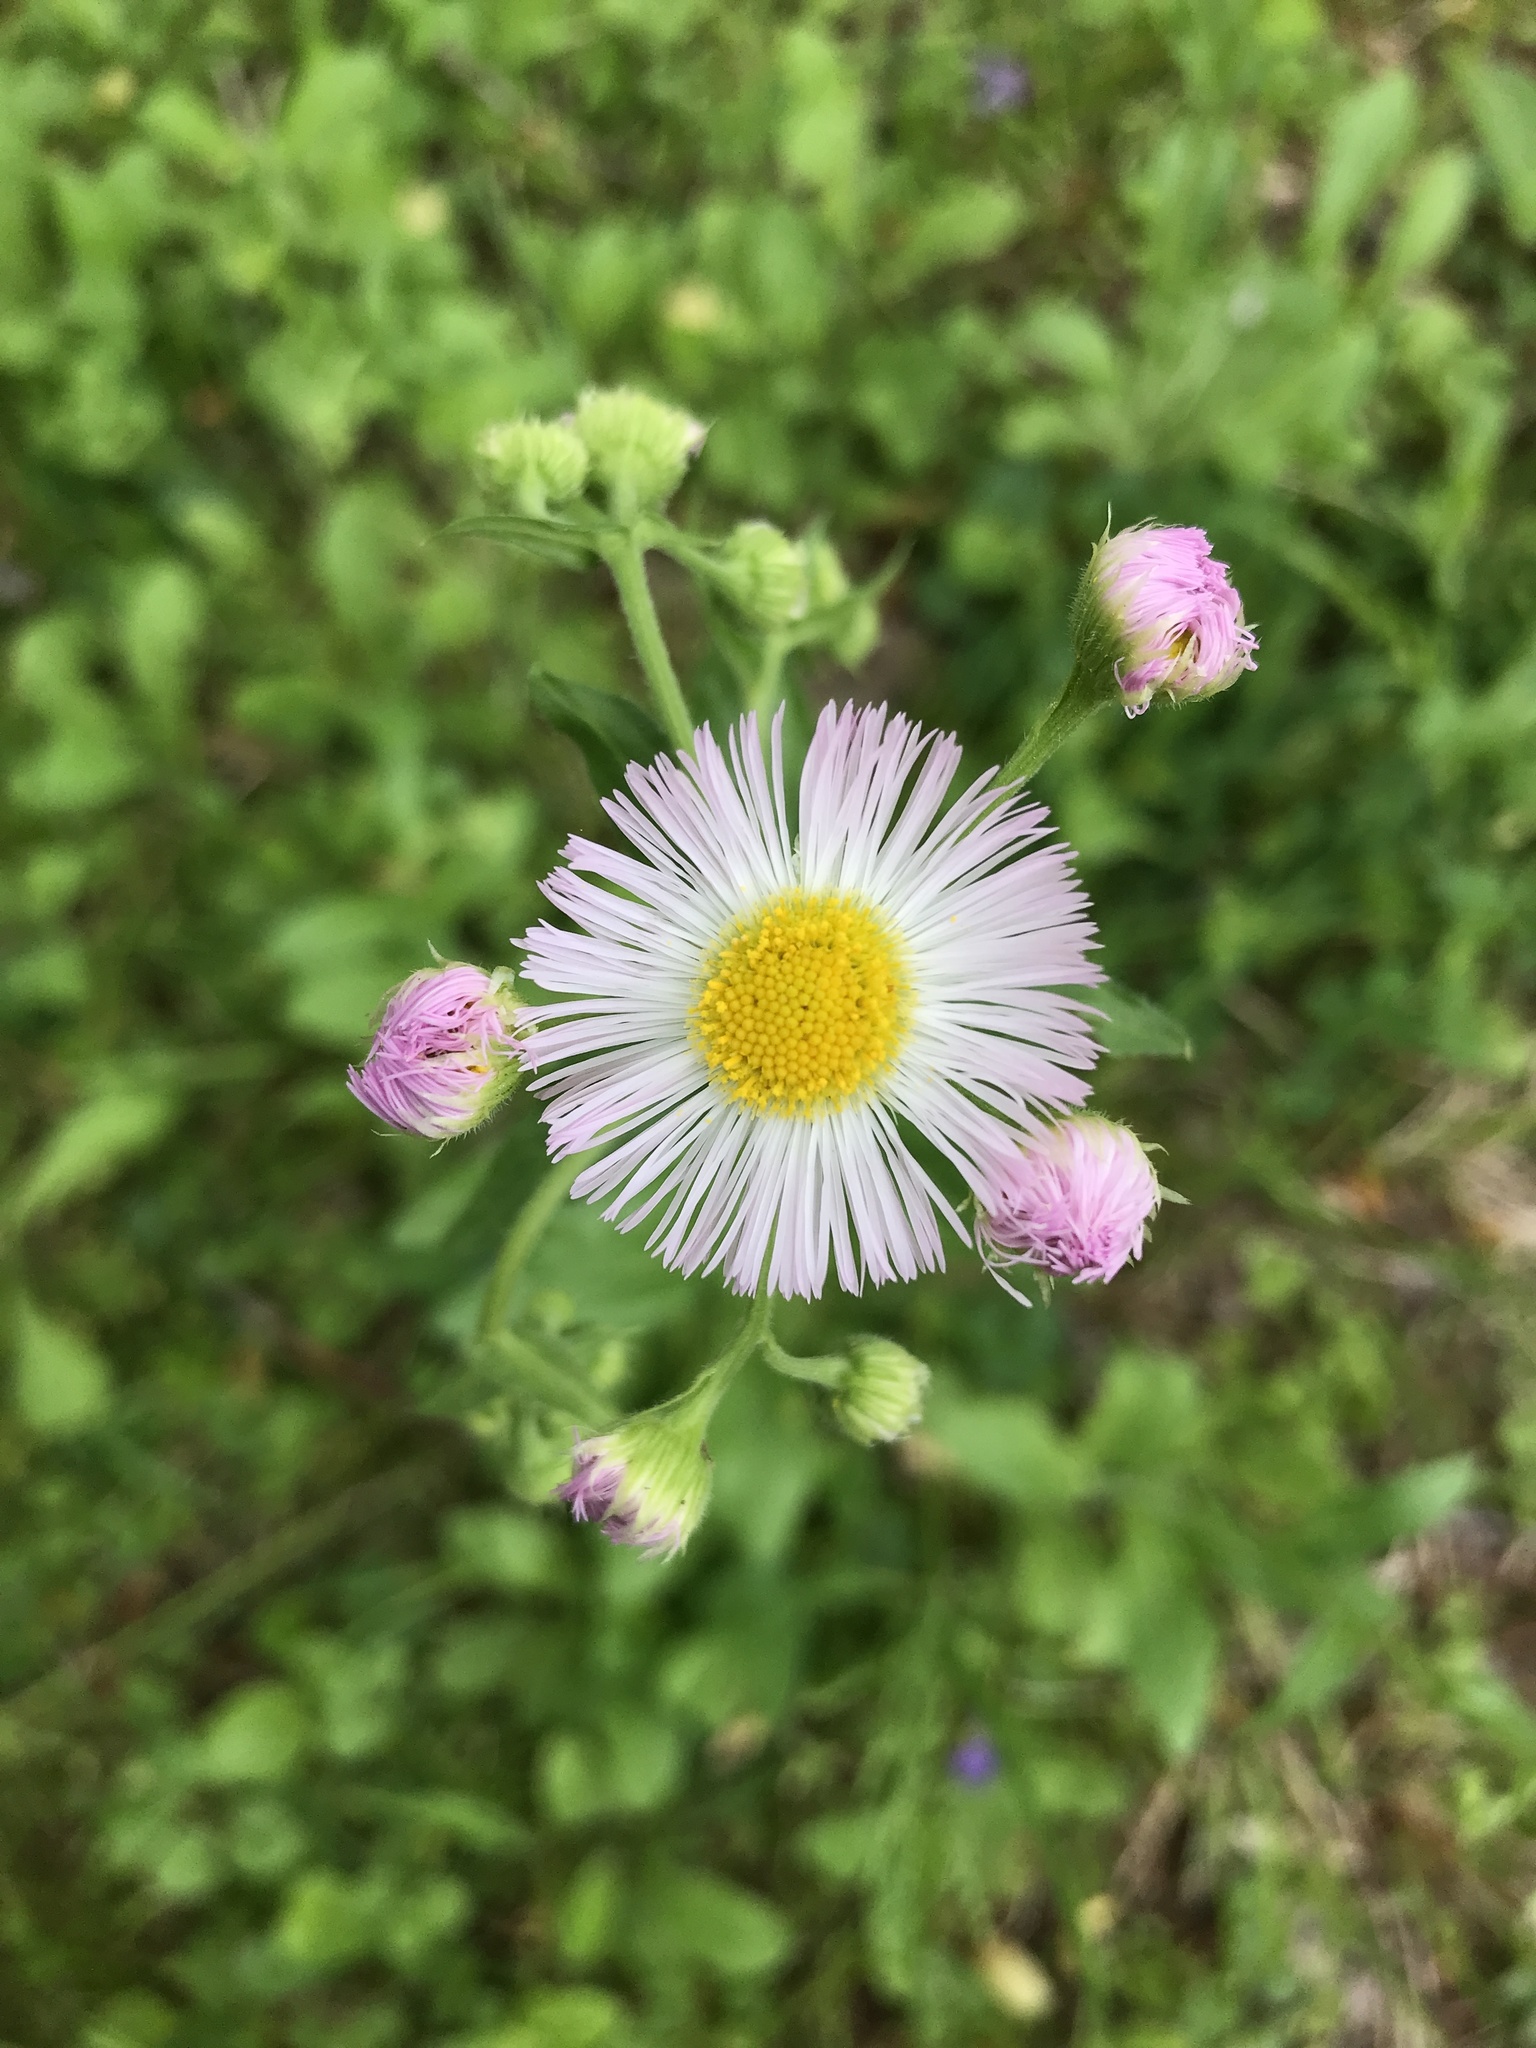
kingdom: Plantae
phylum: Tracheophyta
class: Magnoliopsida
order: Asterales
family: Asteraceae
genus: Erigeron
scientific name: Erigeron philadelphicus
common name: Robin's-plantain
